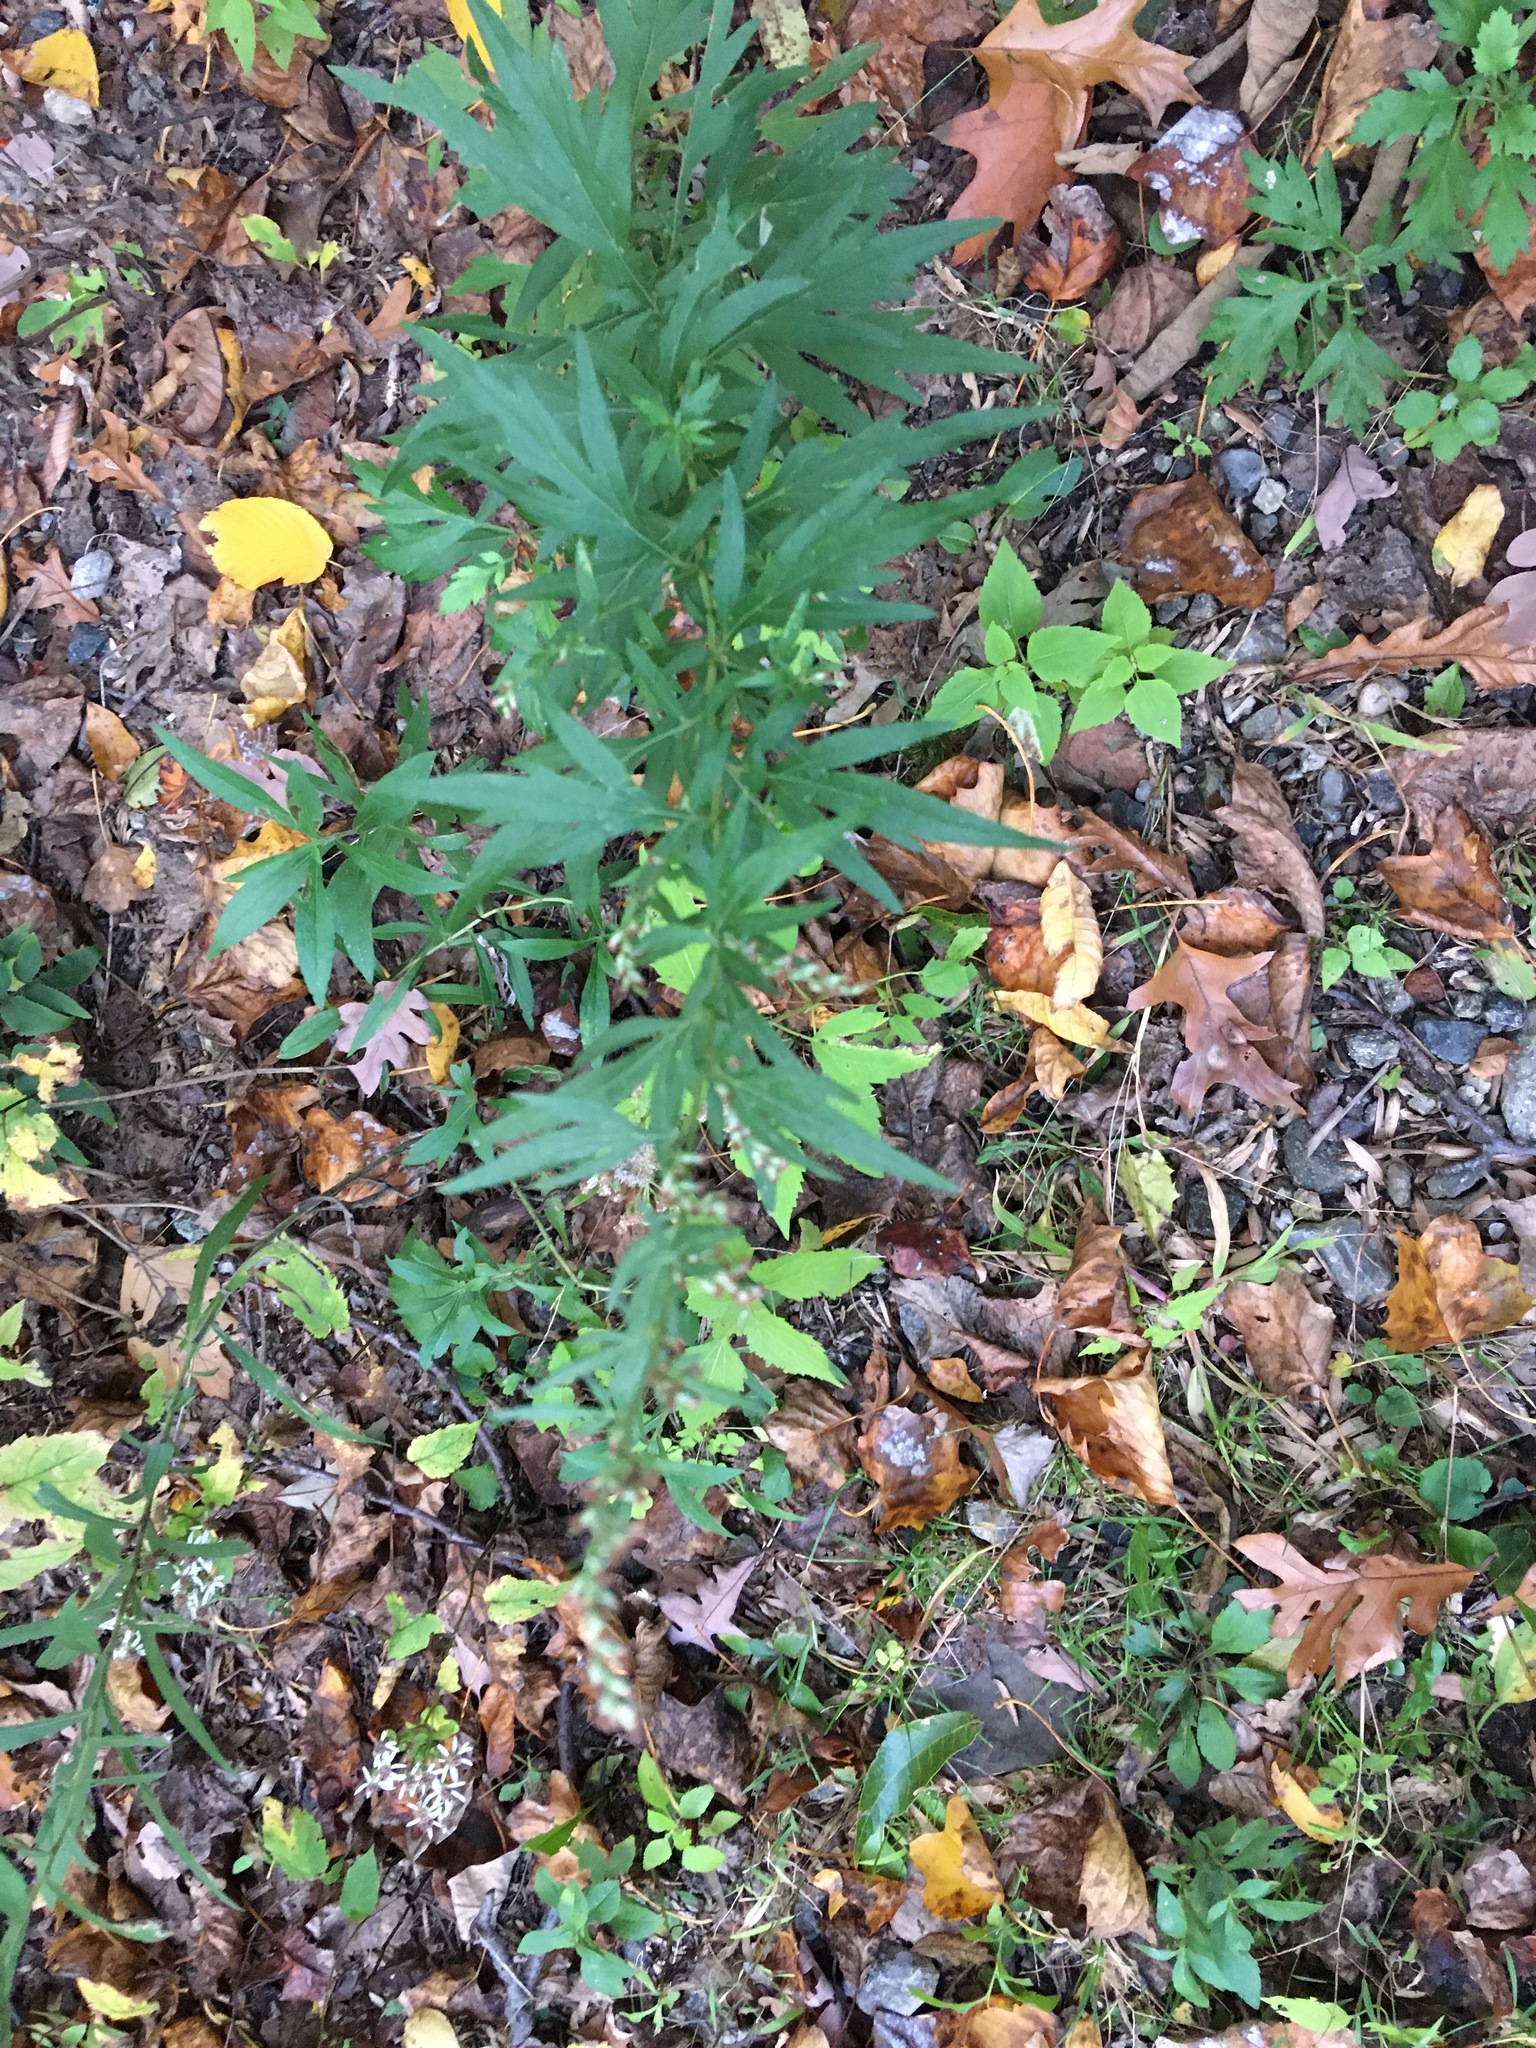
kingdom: Plantae
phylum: Tracheophyta
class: Magnoliopsida
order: Asterales
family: Asteraceae
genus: Artemisia
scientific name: Artemisia vulgaris
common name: Mugwort
